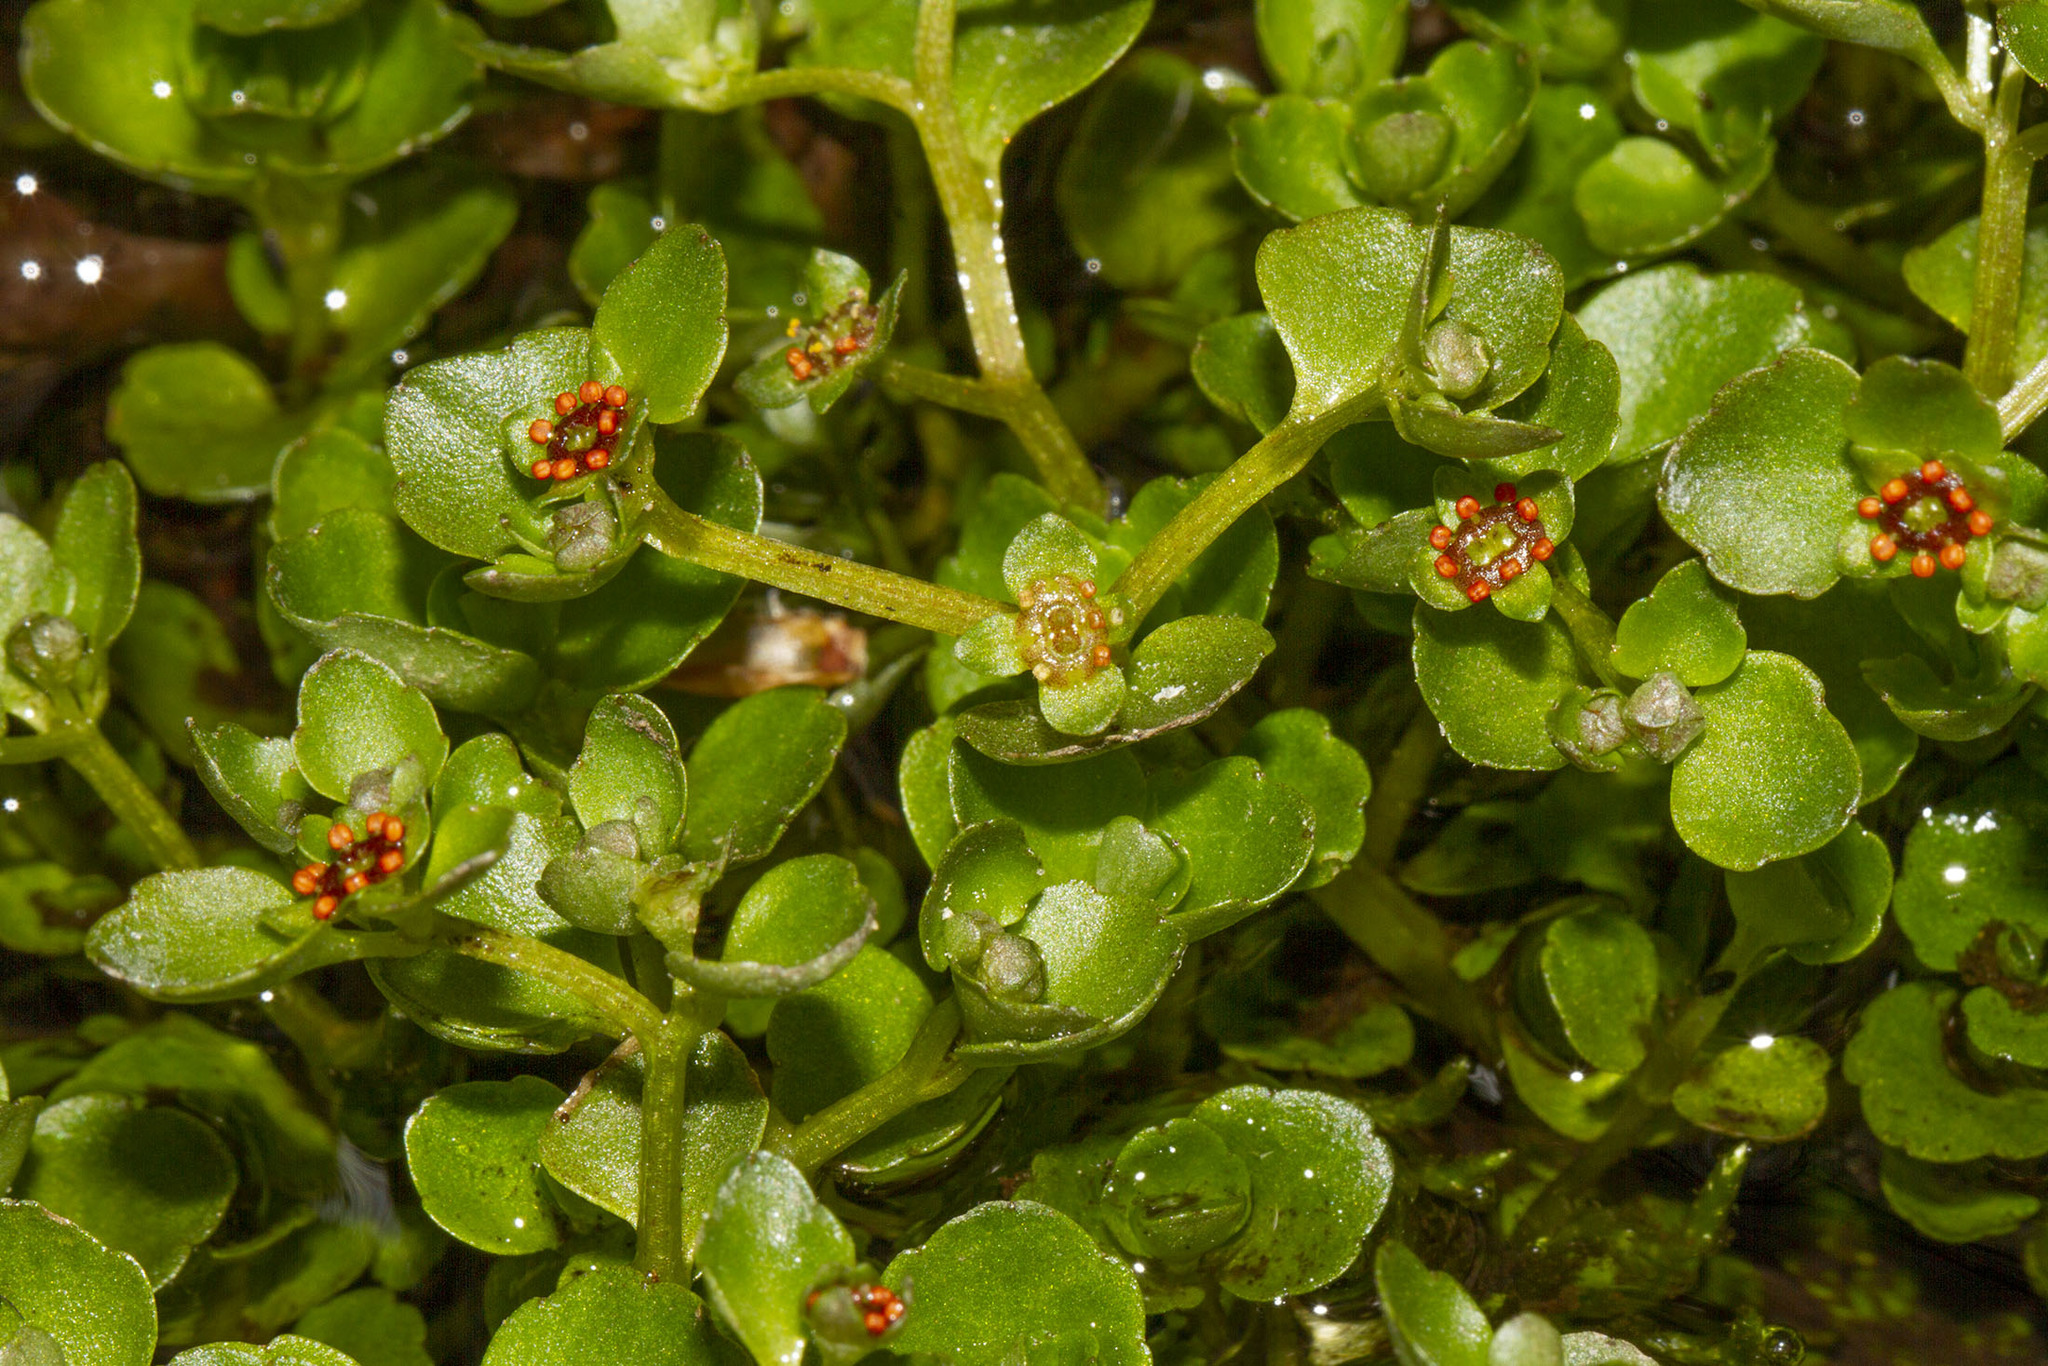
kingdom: Plantae
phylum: Tracheophyta
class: Magnoliopsida
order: Saxifragales
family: Saxifragaceae
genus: Chrysosplenium
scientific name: Chrysosplenium americanum
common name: American golden-saxifrage
